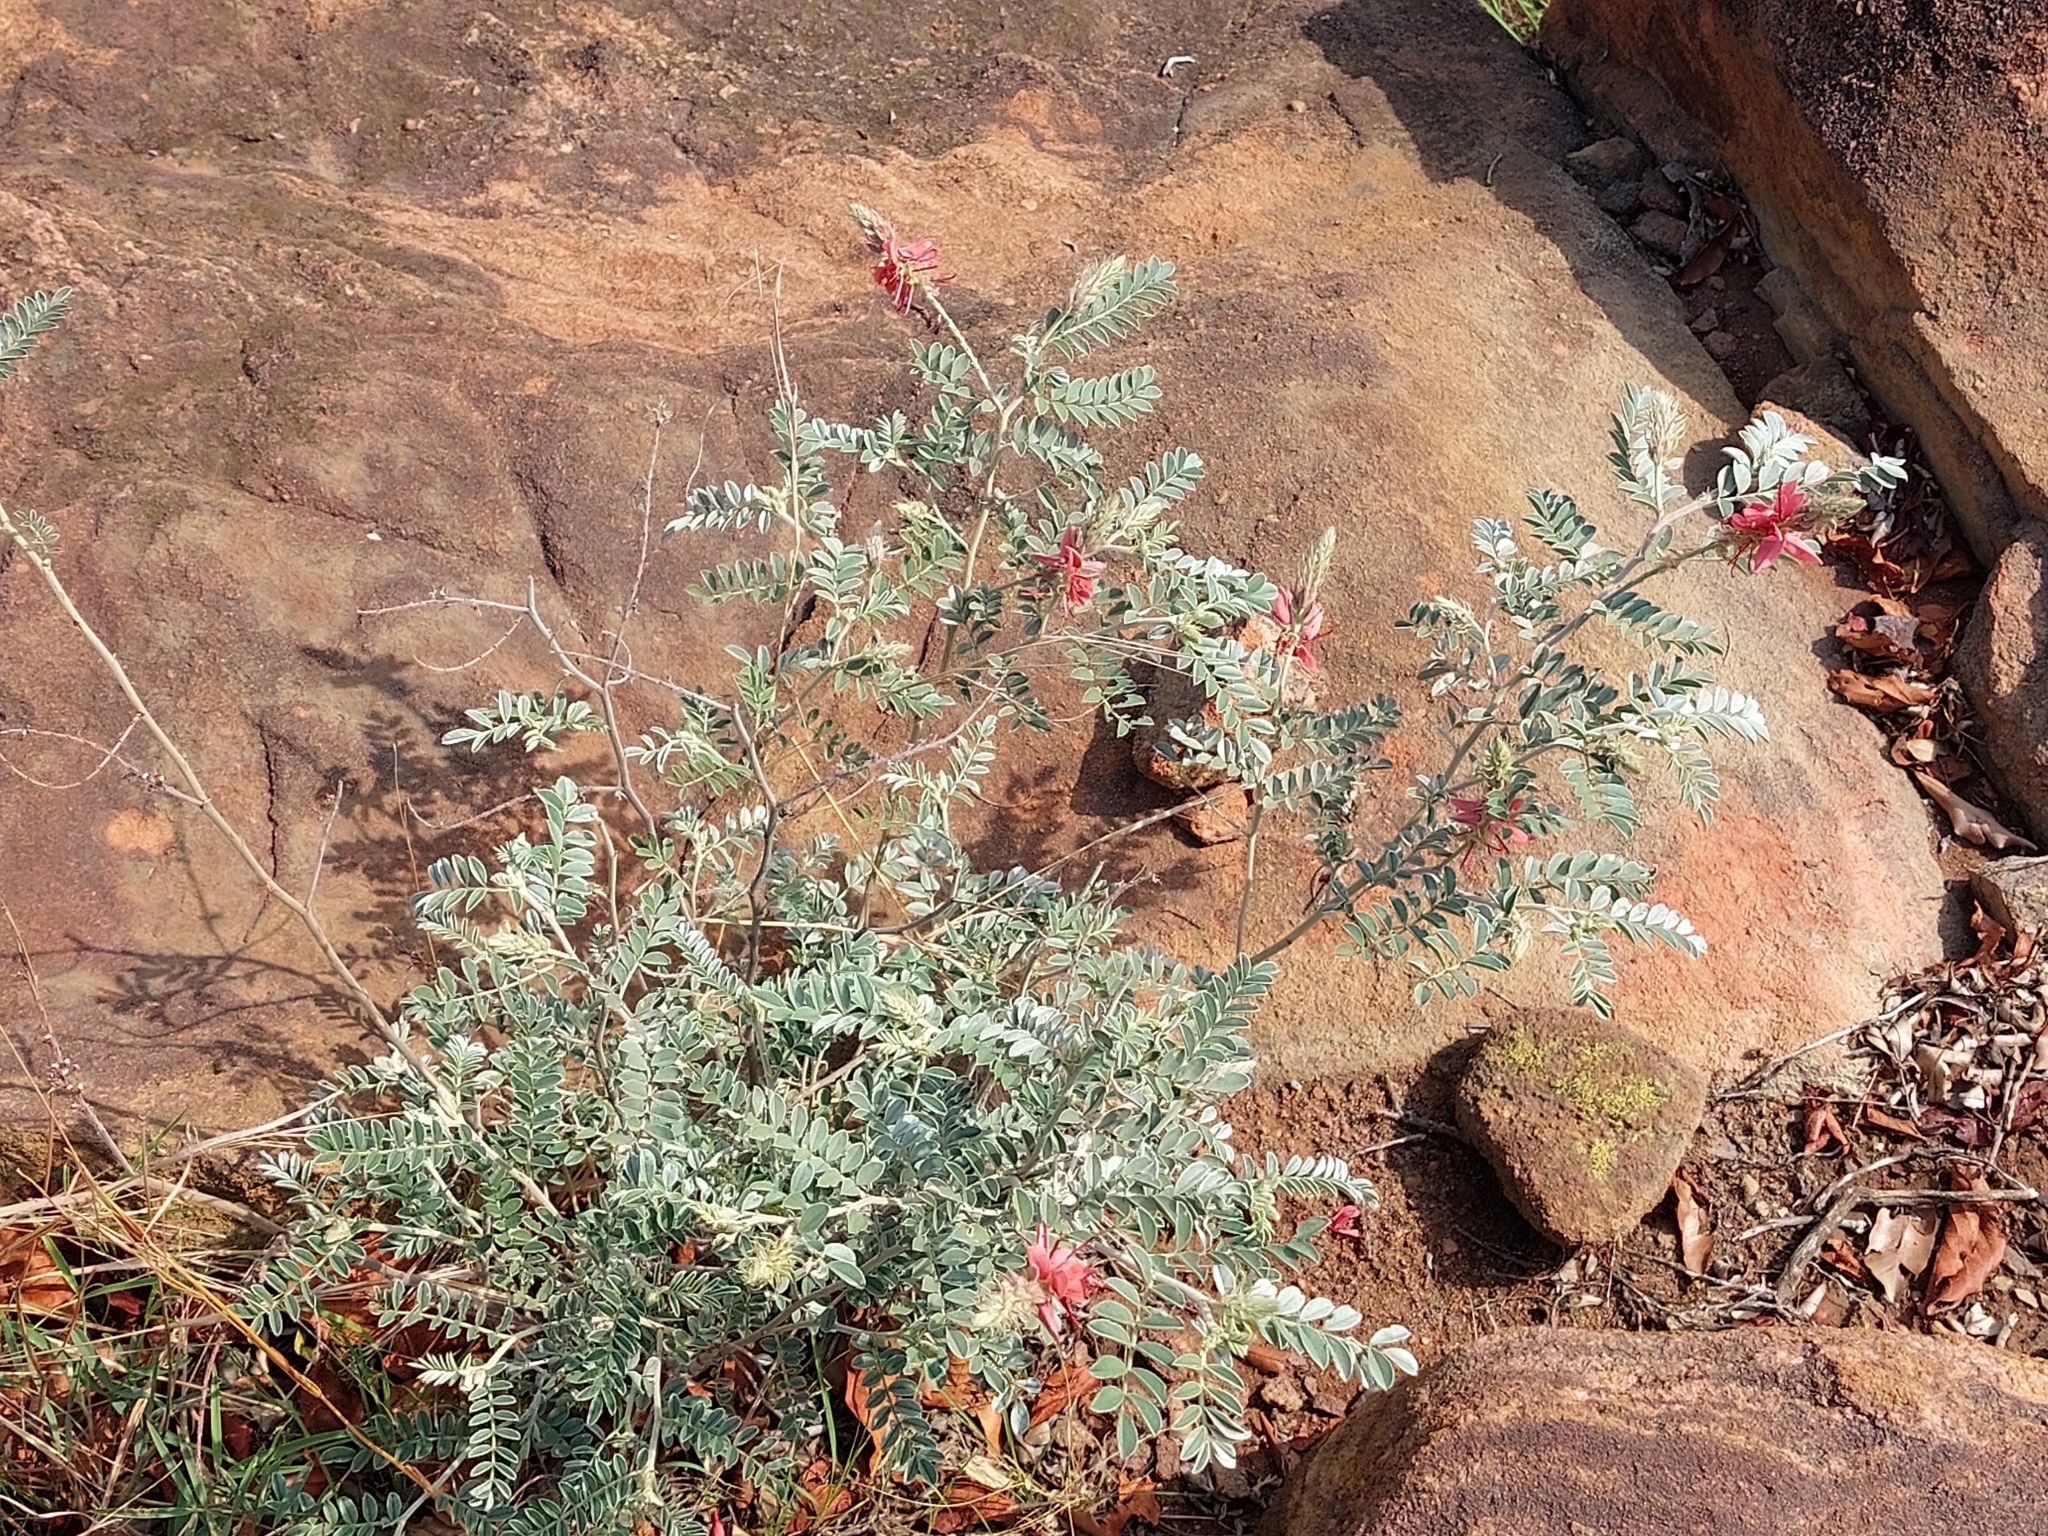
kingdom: Plantae
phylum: Tracheophyta
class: Magnoliopsida
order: Fabales
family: Fabaceae
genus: Indigofera
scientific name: Indigofera mollicoma
